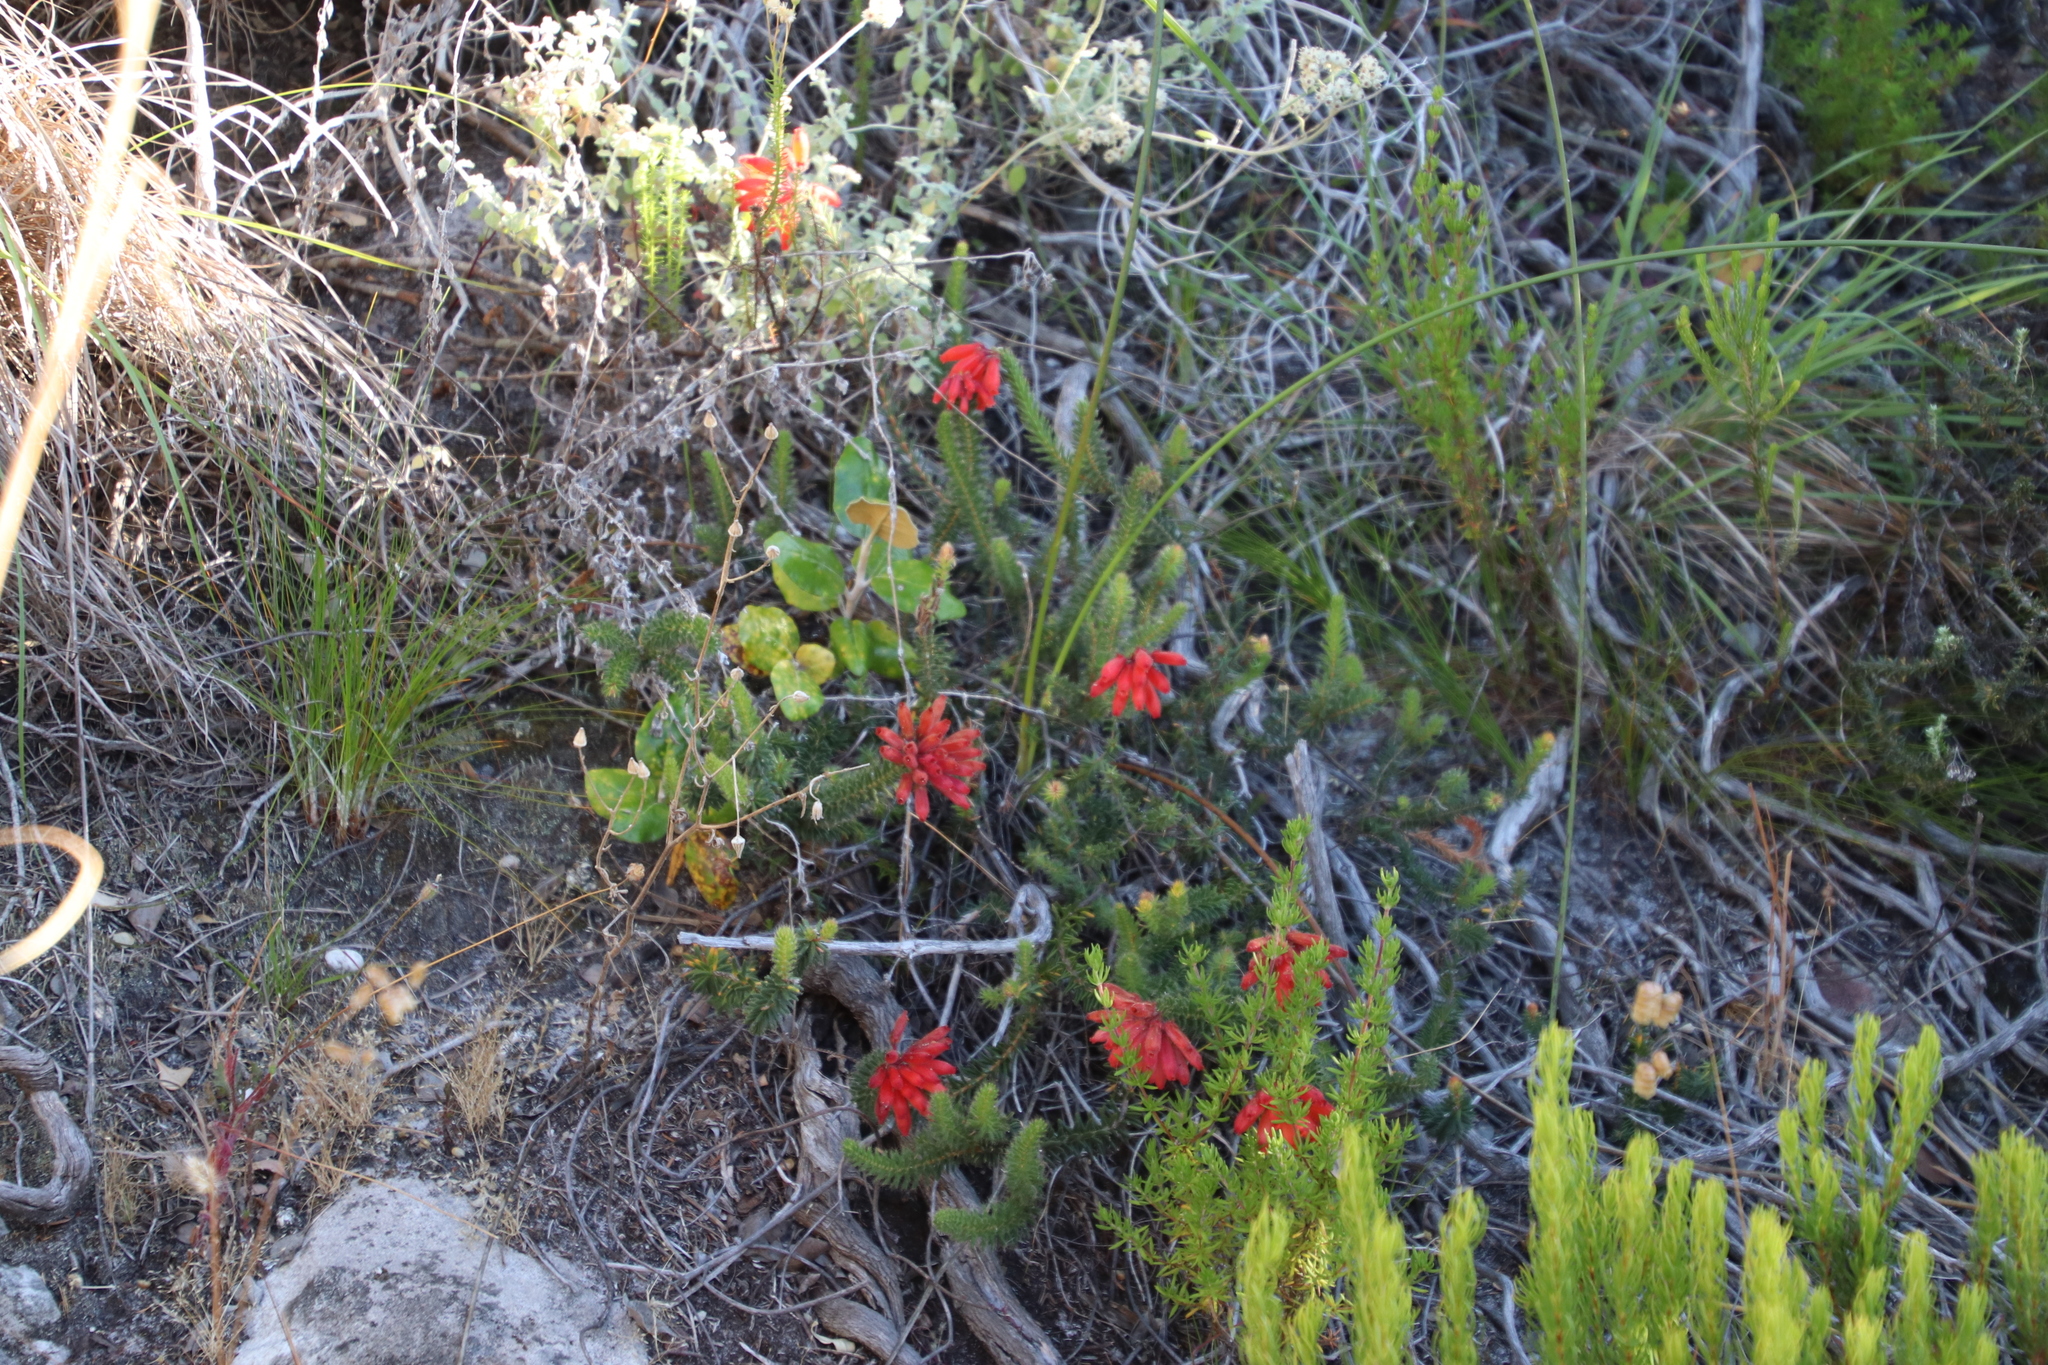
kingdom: Plantae
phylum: Tracheophyta
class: Magnoliopsida
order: Ericales
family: Ericaceae
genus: Erica
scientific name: Erica cerinthoides
